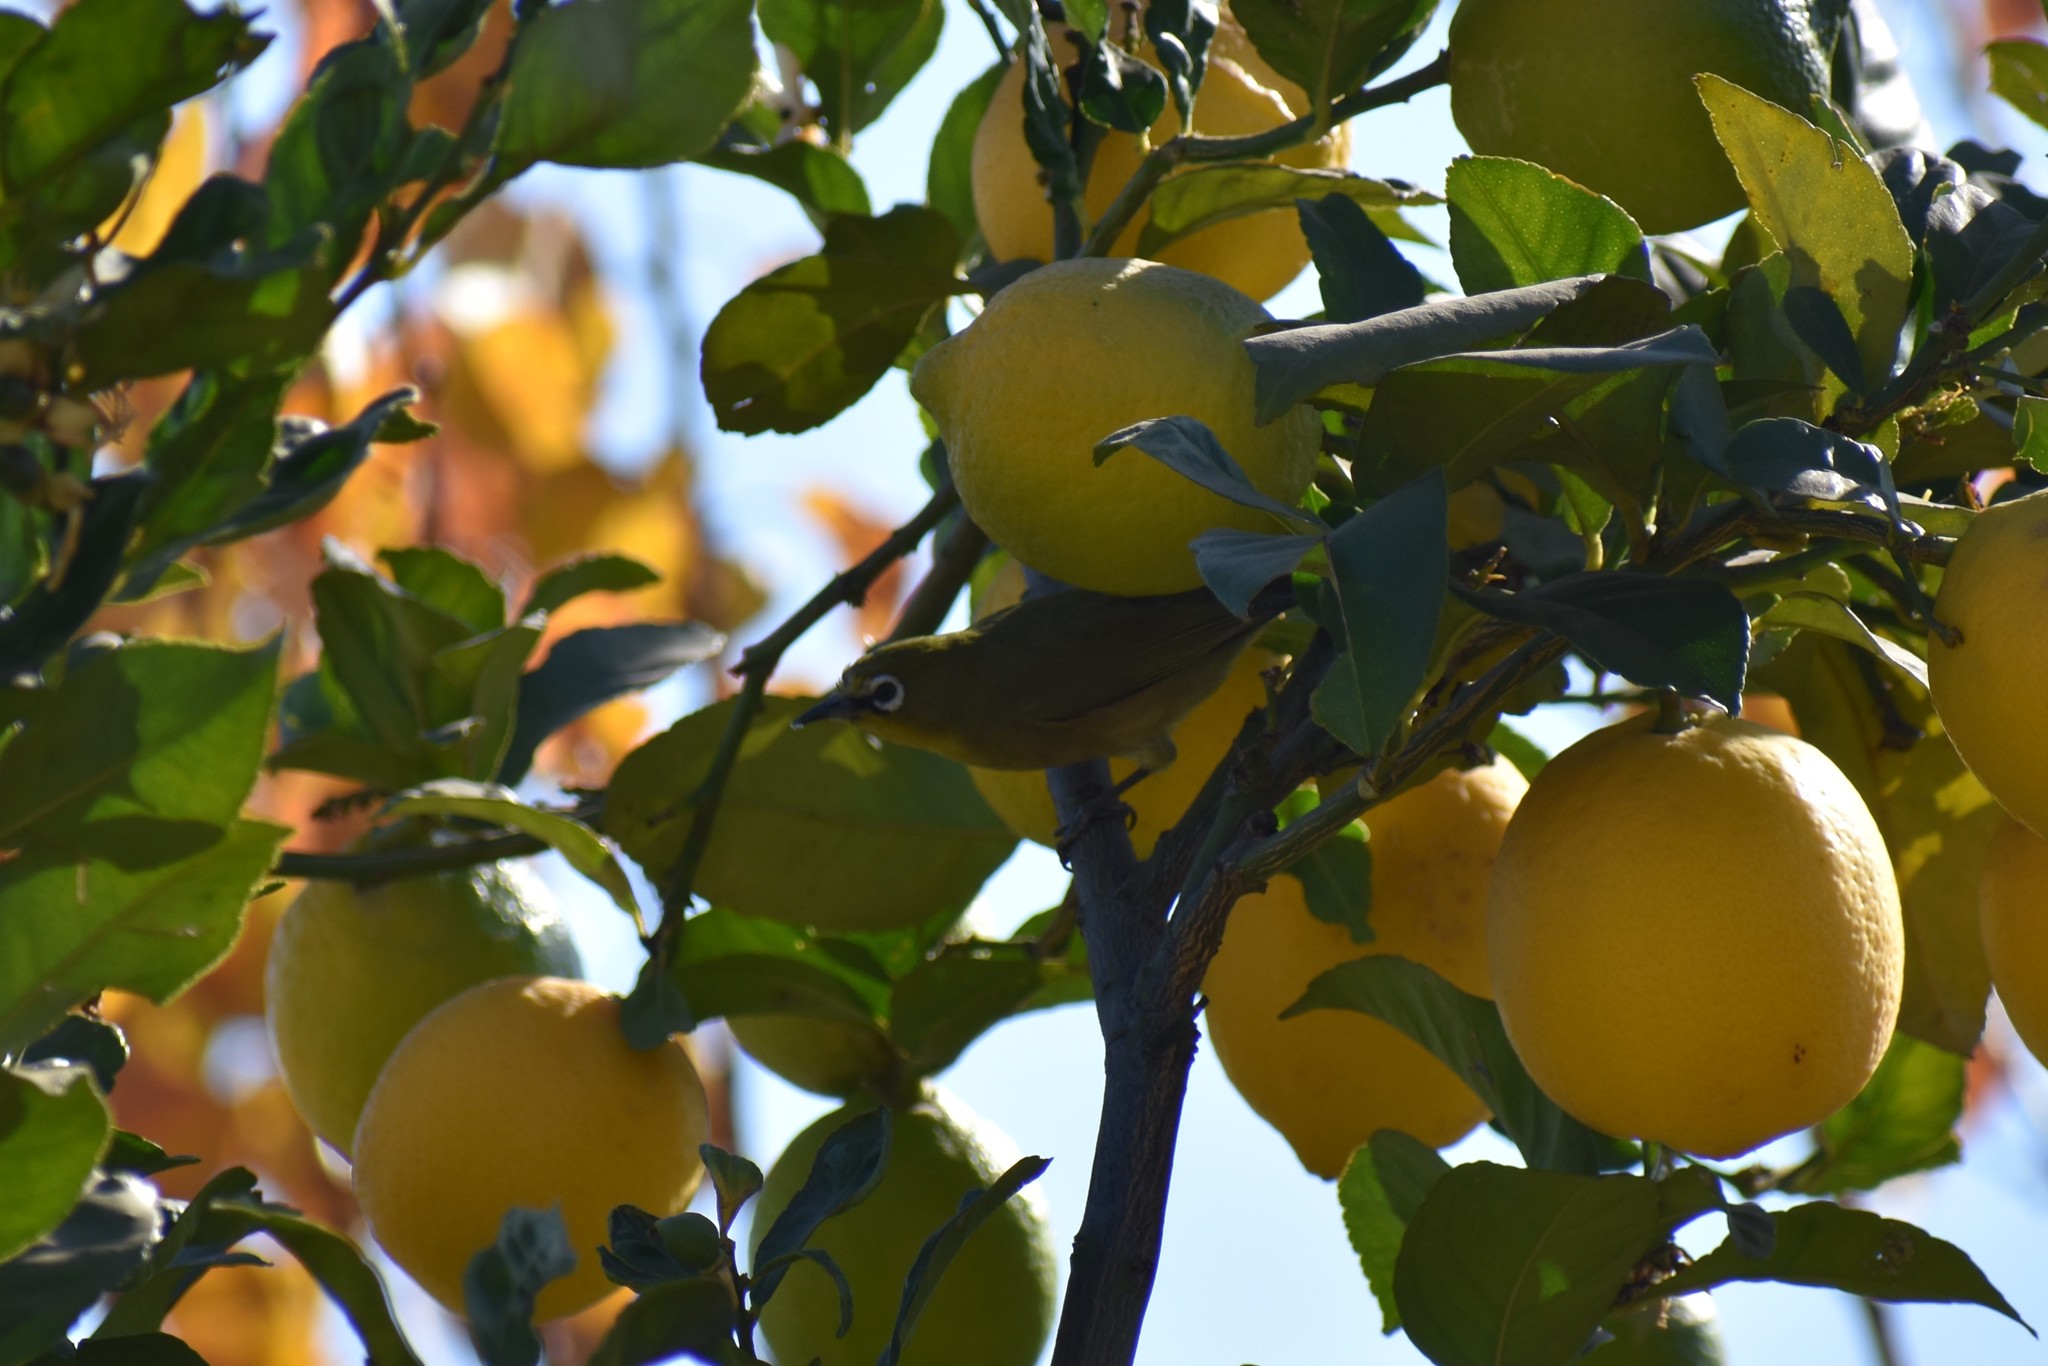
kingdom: Animalia
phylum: Chordata
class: Aves
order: Passeriformes
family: Zosteropidae
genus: Zosterops
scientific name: Zosterops virens
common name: Cape white-eye
